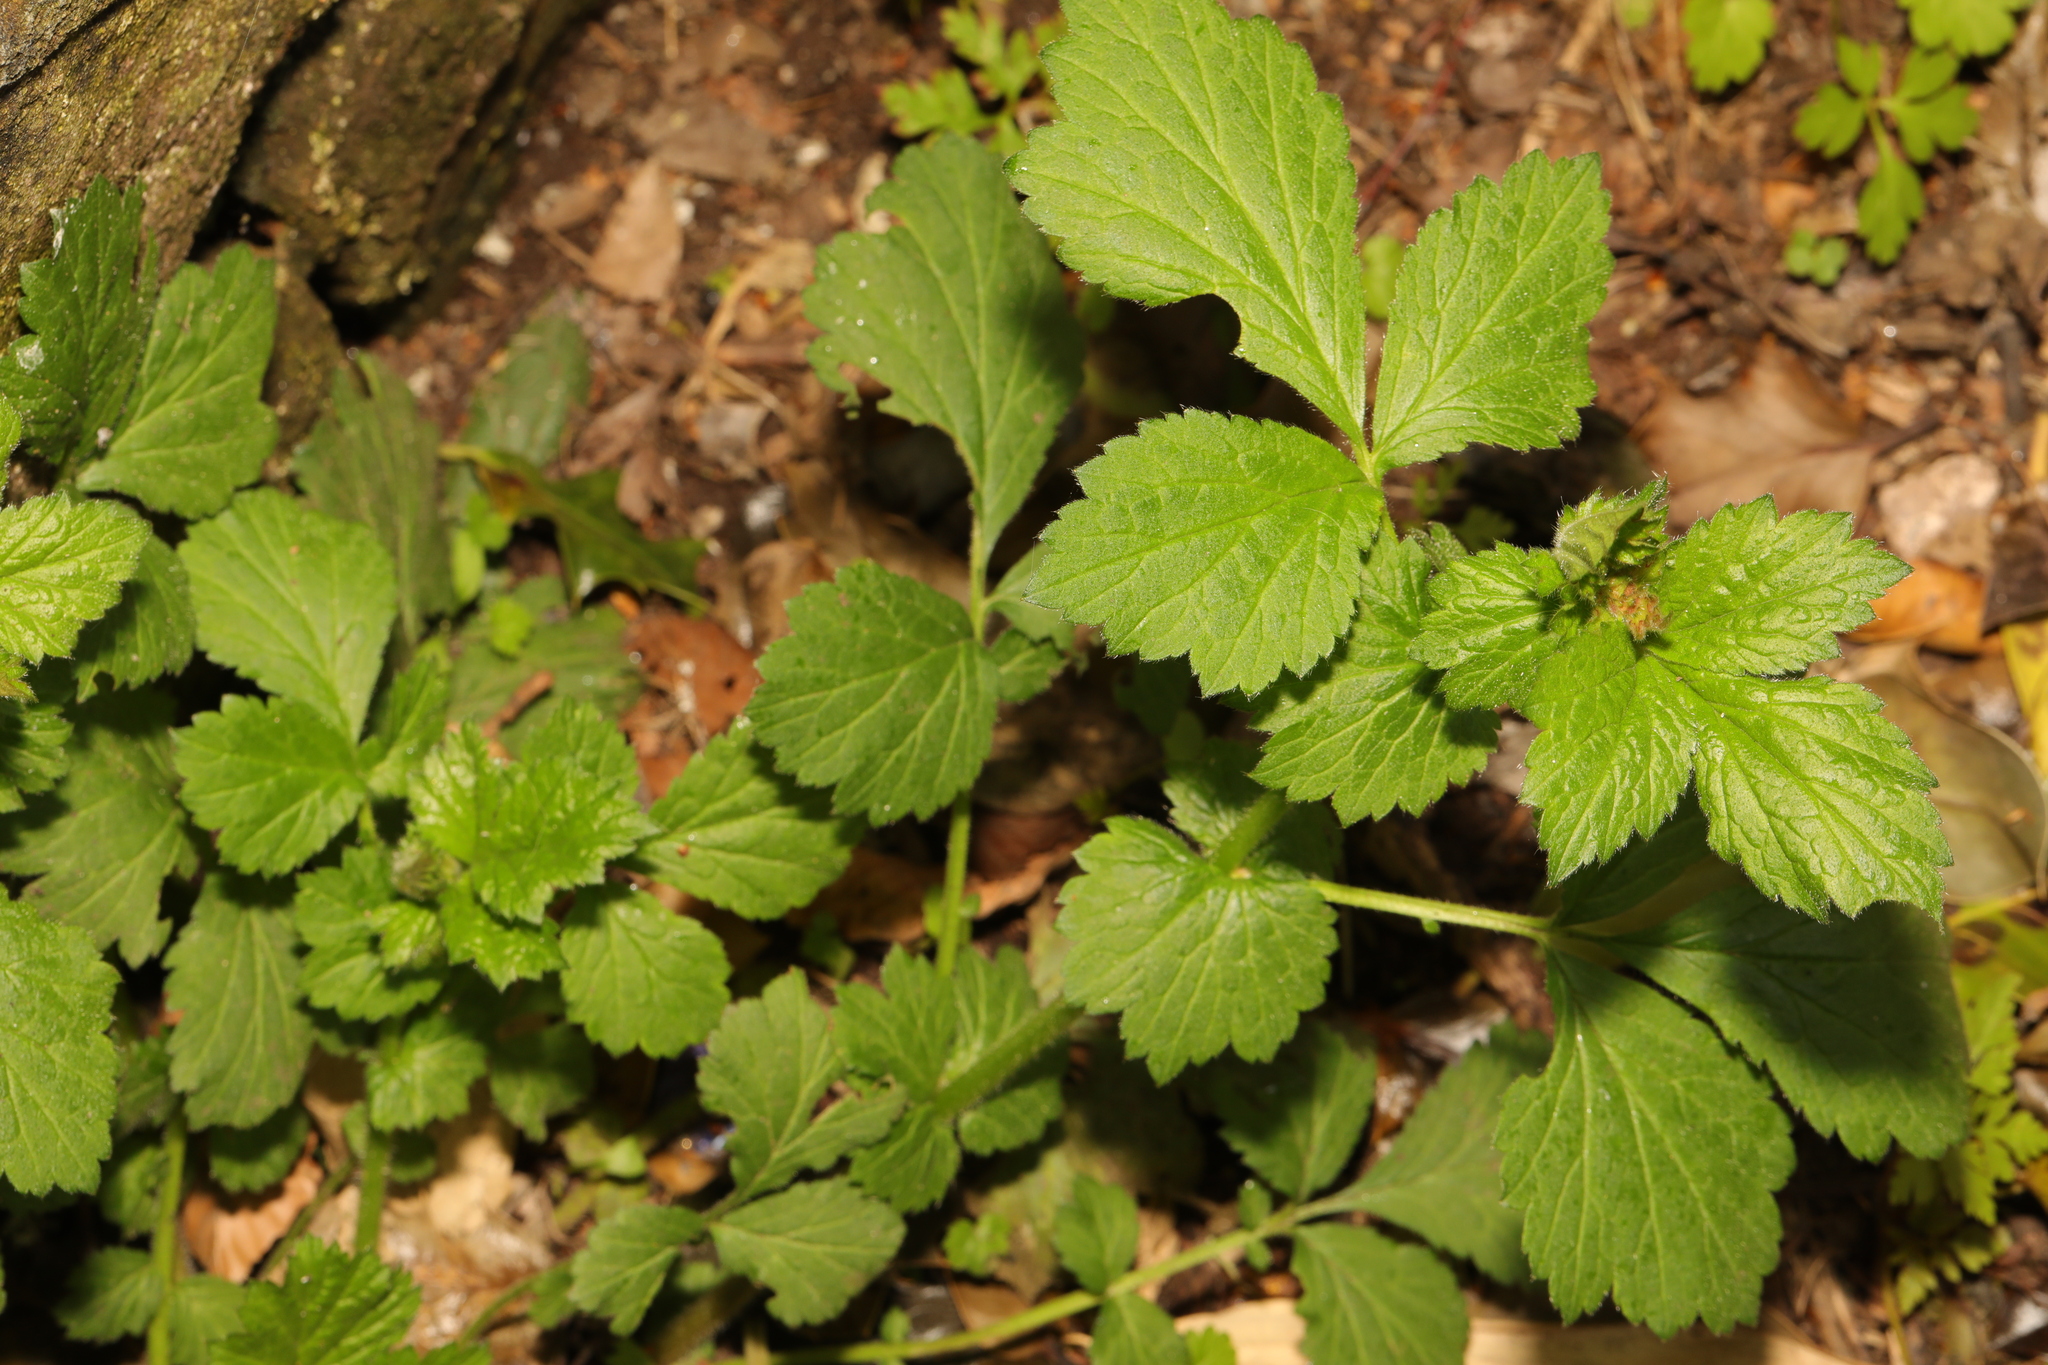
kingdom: Plantae
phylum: Tracheophyta
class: Magnoliopsida
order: Rosales
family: Rosaceae
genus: Geum
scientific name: Geum urbanum
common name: Wood avens
